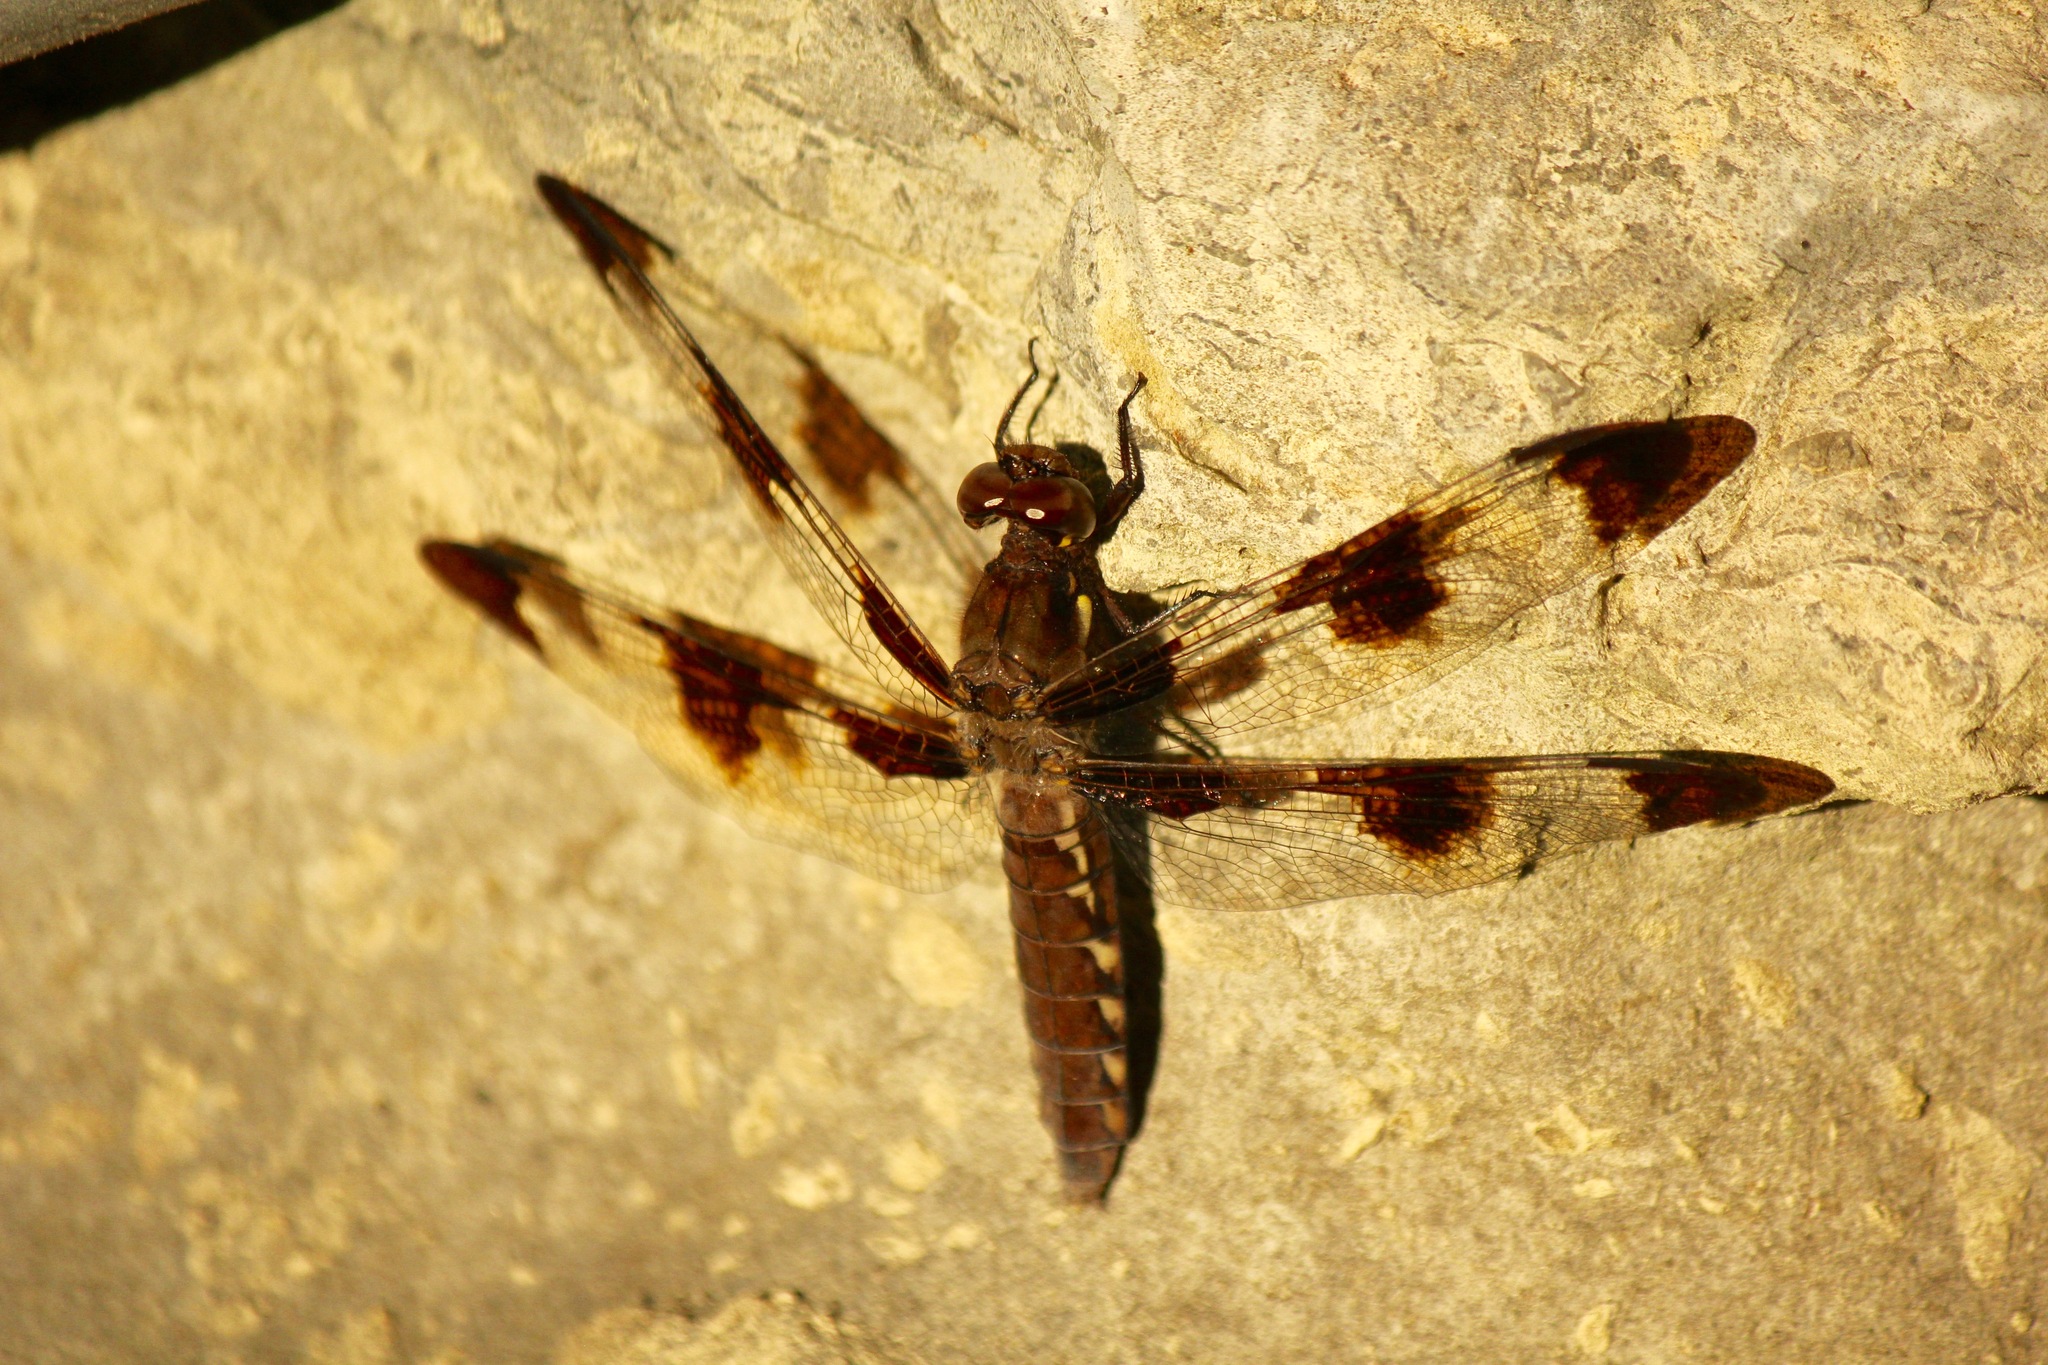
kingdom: Animalia
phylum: Arthropoda
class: Insecta
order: Odonata
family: Libellulidae
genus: Plathemis
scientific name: Plathemis lydia
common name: Common whitetail
